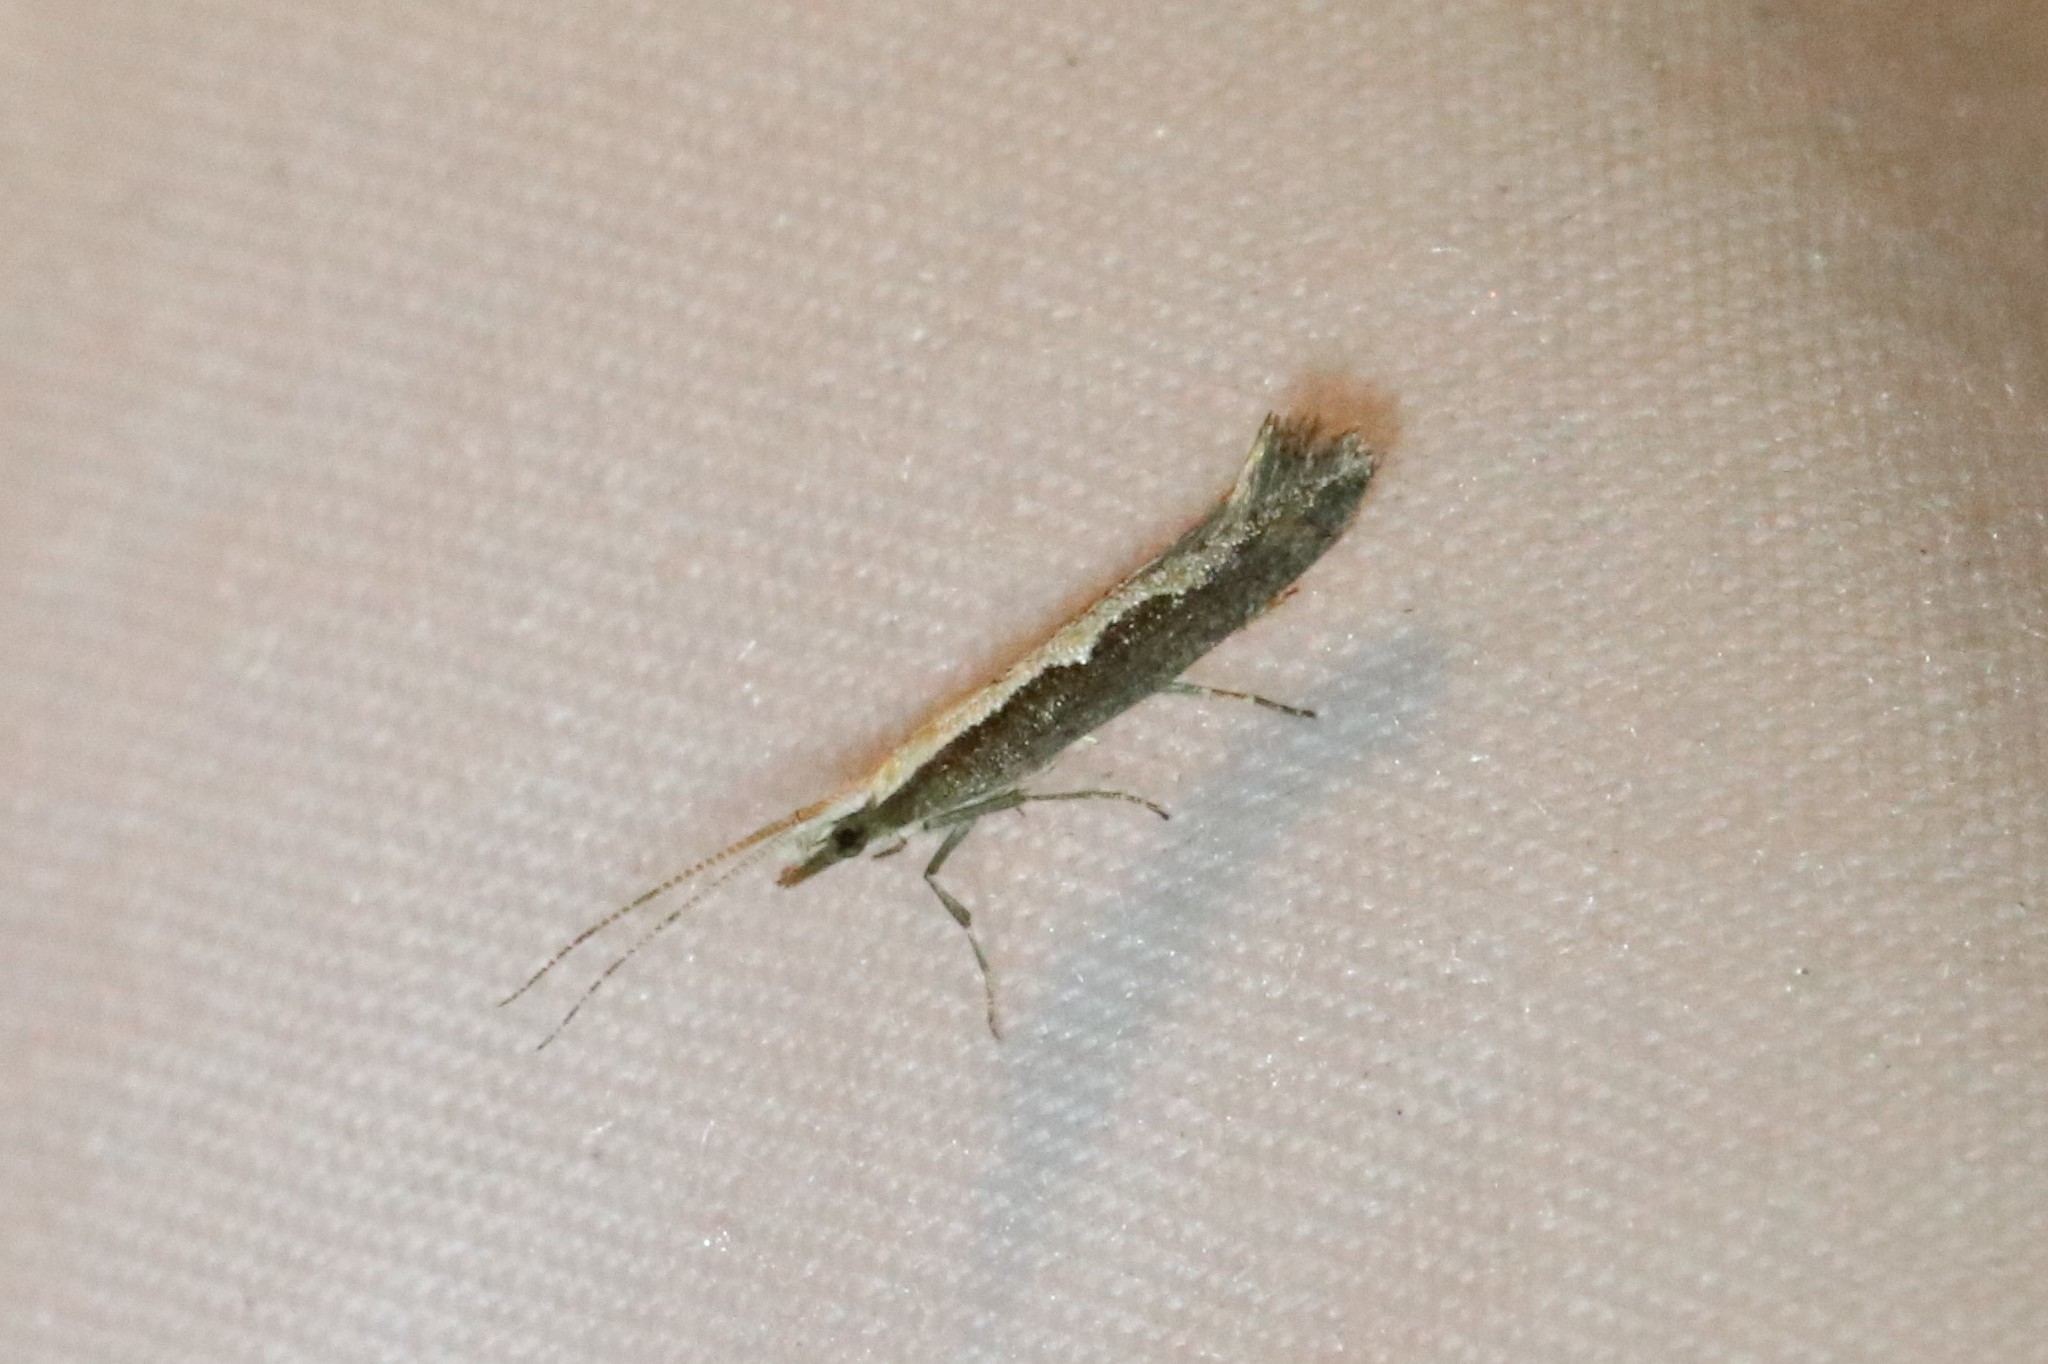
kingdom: Animalia
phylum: Arthropoda
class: Insecta
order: Lepidoptera
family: Plutellidae
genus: Plutella
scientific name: Plutella xylostella
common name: Diamond-back moth
